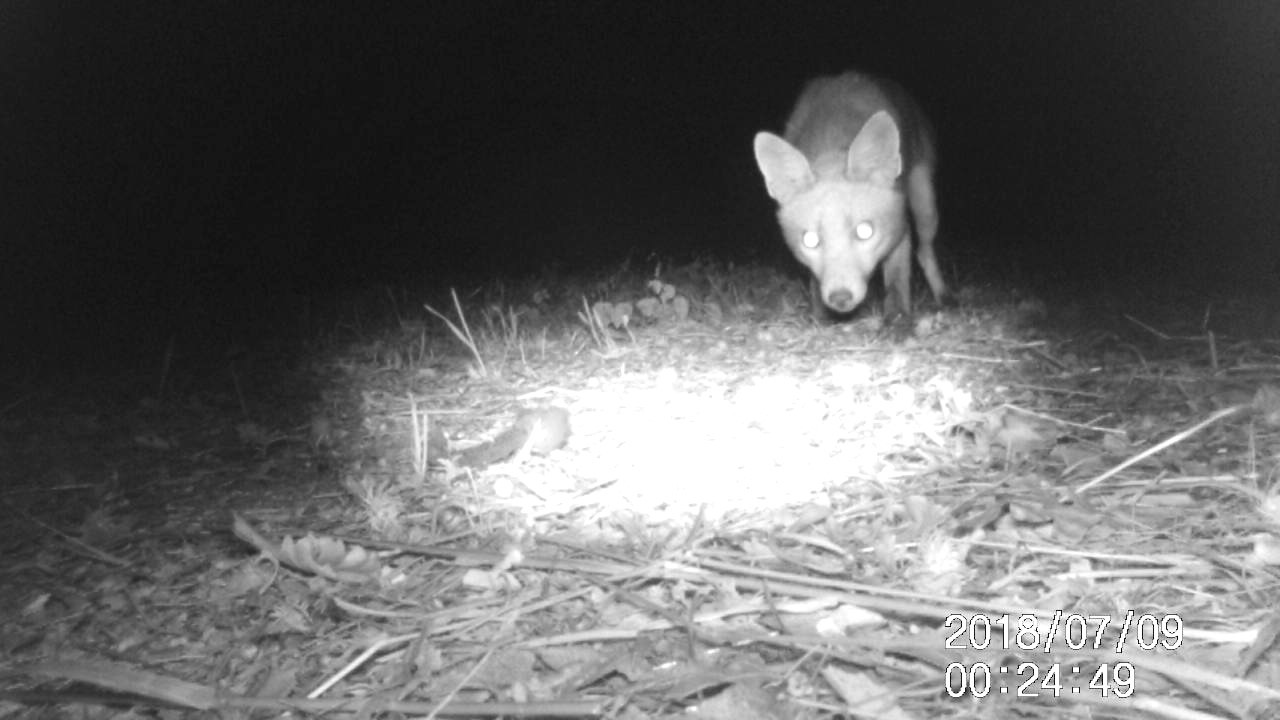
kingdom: Animalia
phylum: Chordata
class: Mammalia
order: Carnivora
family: Canidae
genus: Vulpes
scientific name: Vulpes vulpes
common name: Red fox
